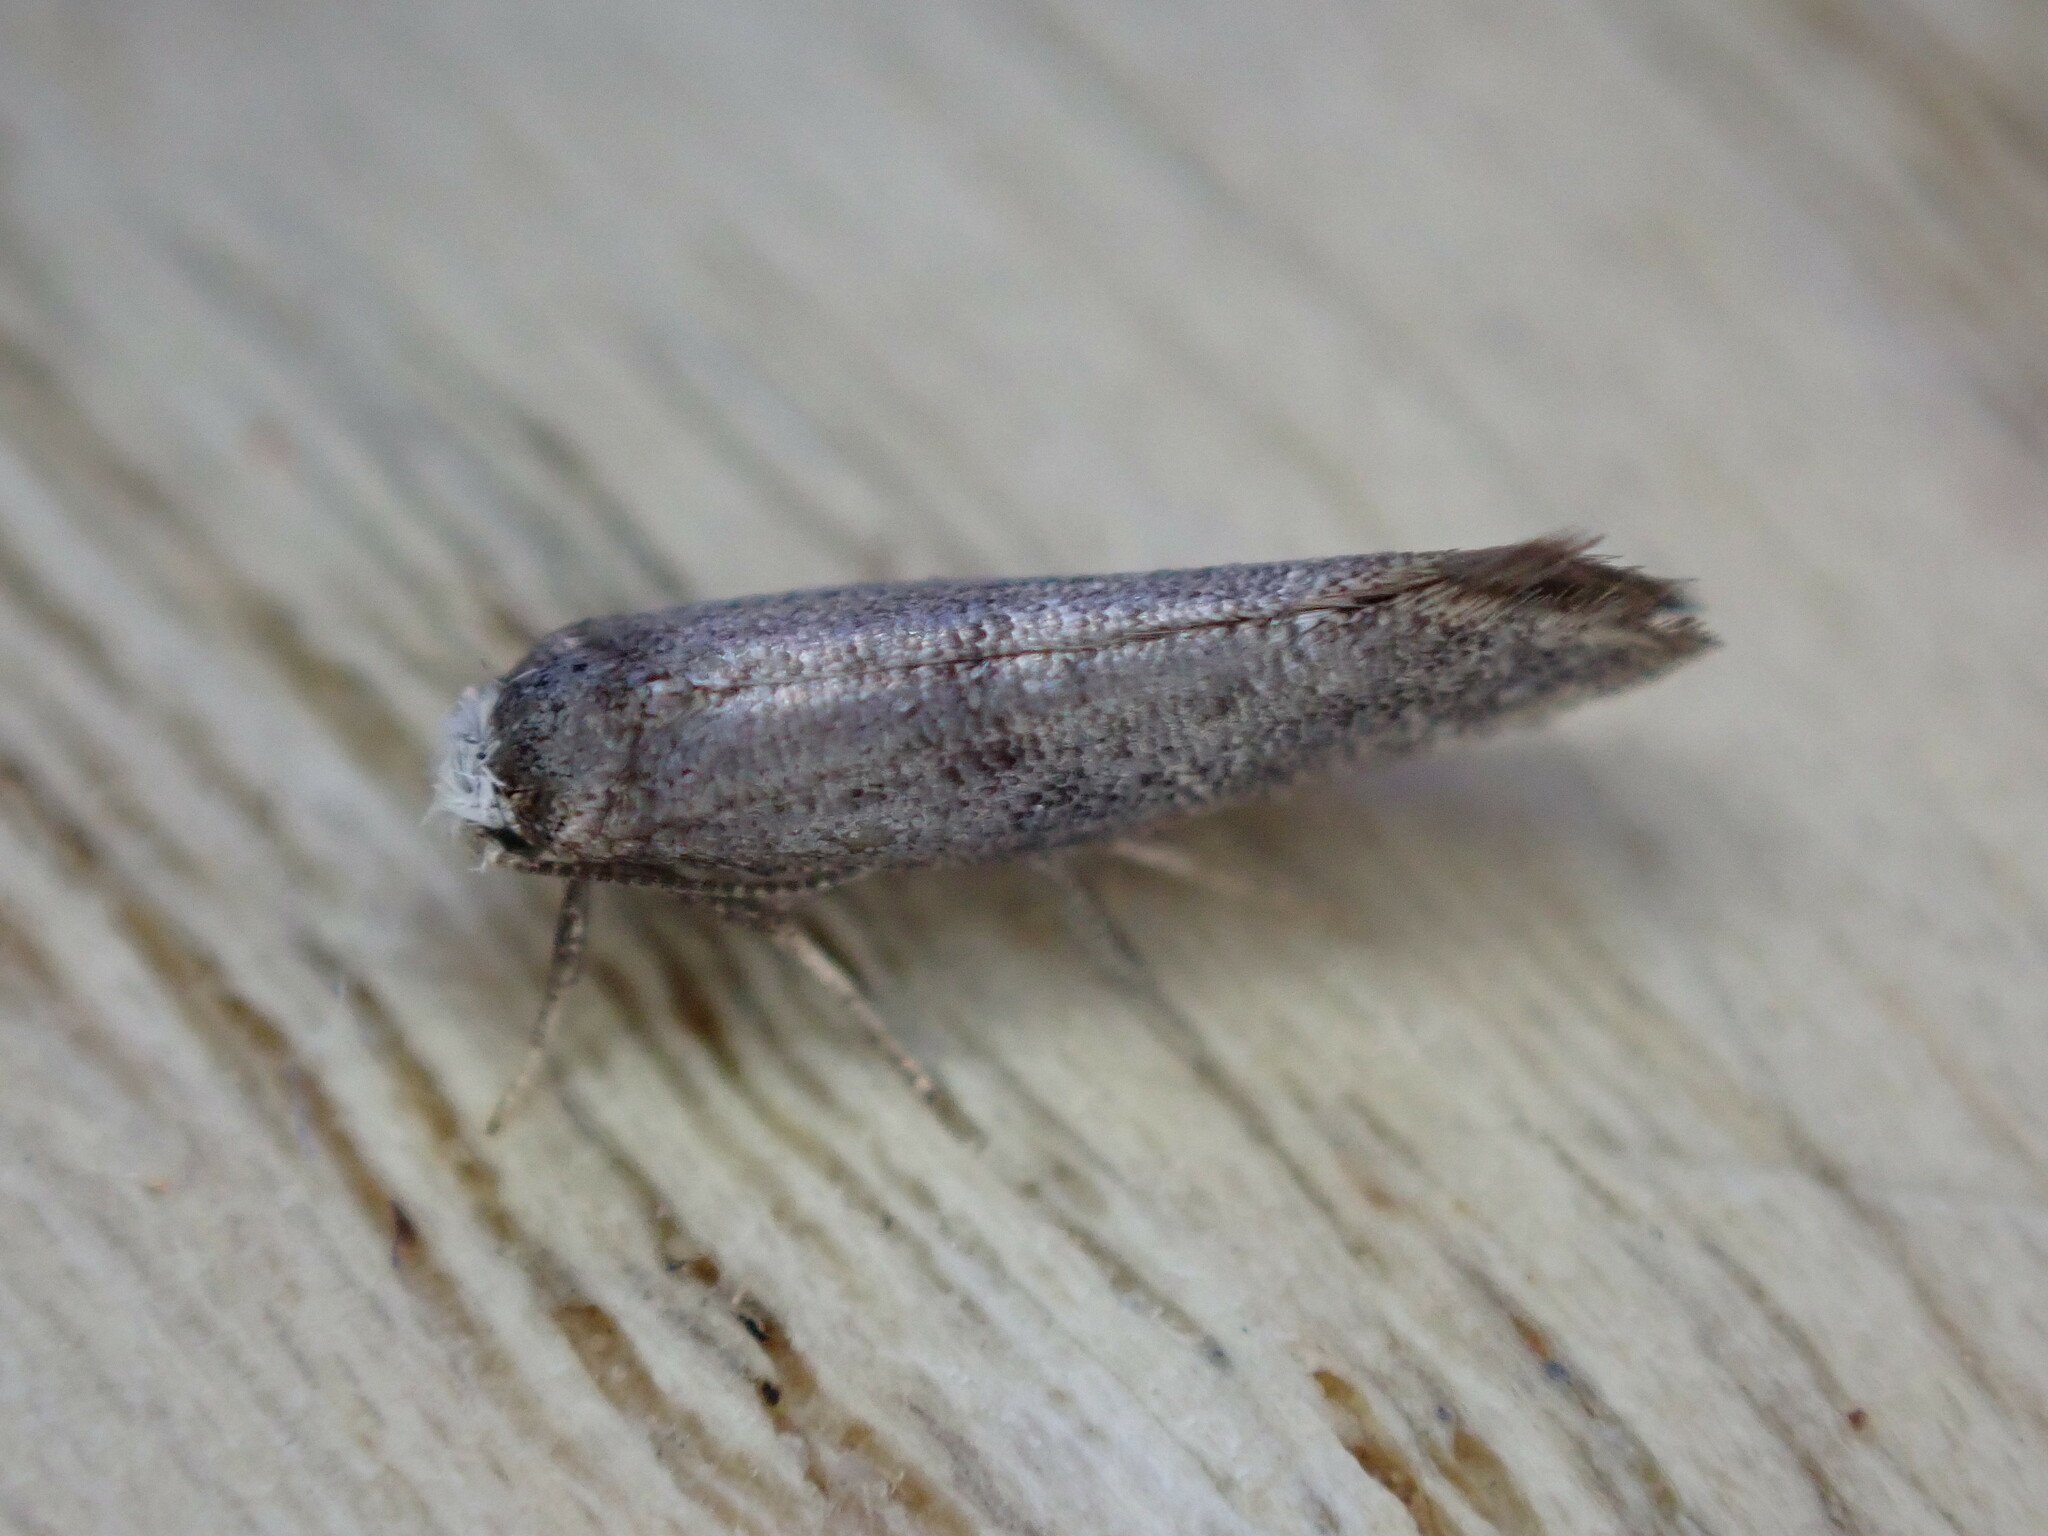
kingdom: Animalia
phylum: Arthropoda
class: Insecta
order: Lepidoptera
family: Yponomeutidae
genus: Swammerdamia
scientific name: Swammerdamia
